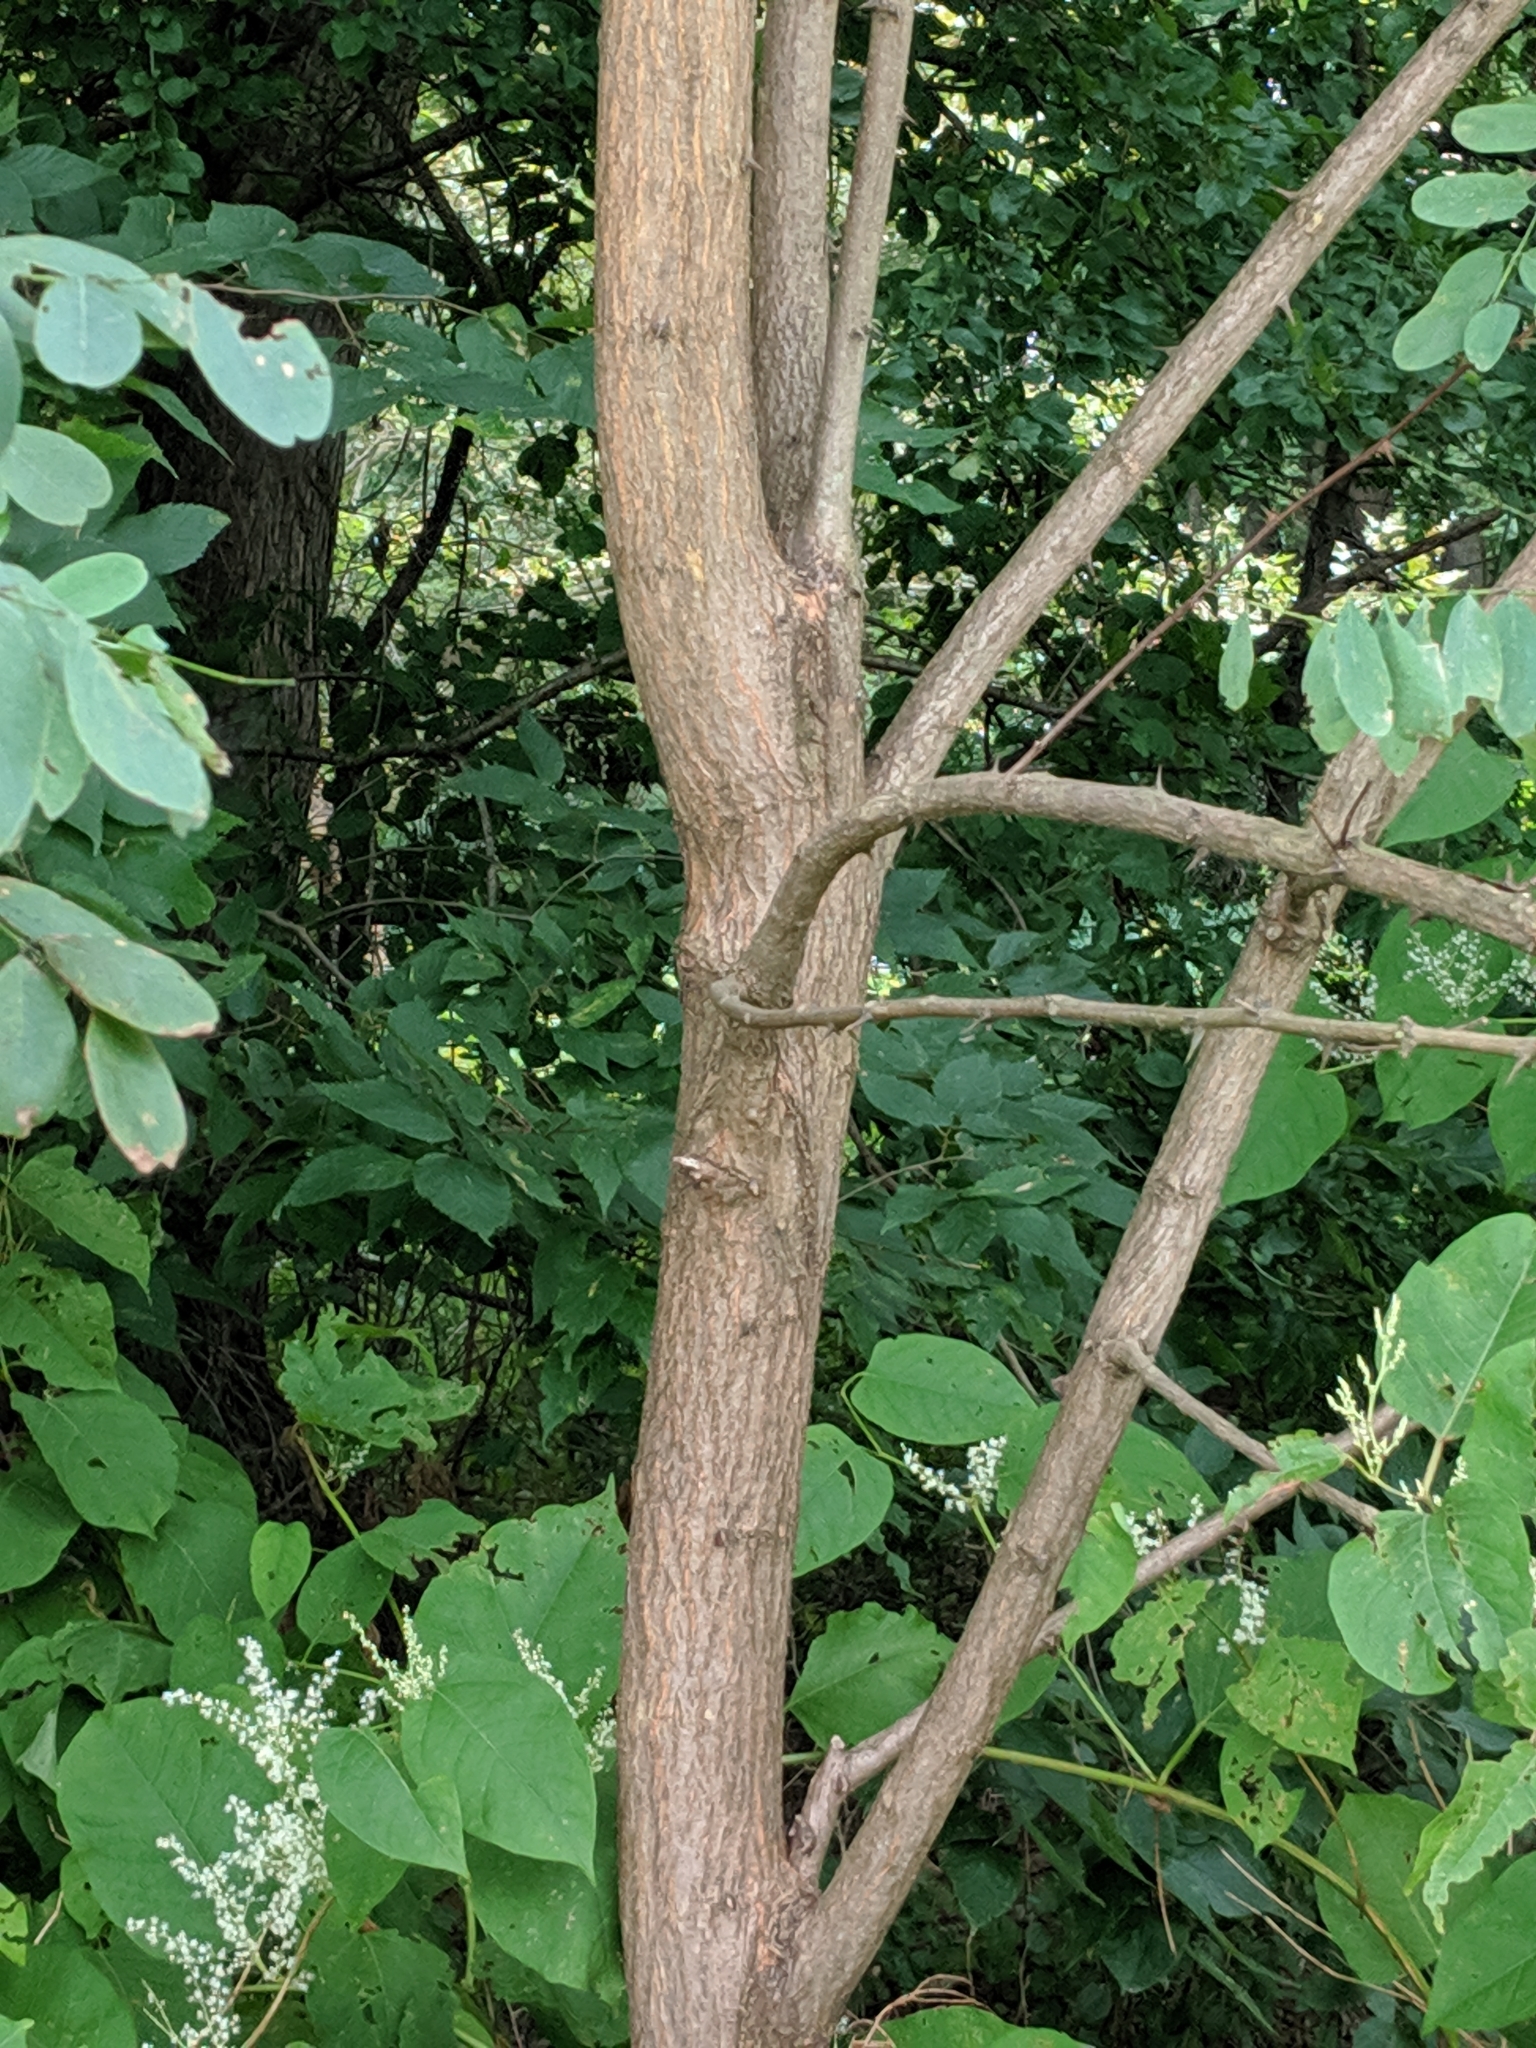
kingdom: Plantae
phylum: Tracheophyta
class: Magnoliopsida
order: Fabales
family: Fabaceae
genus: Robinia
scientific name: Robinia pseudoacacia
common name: Black locust
